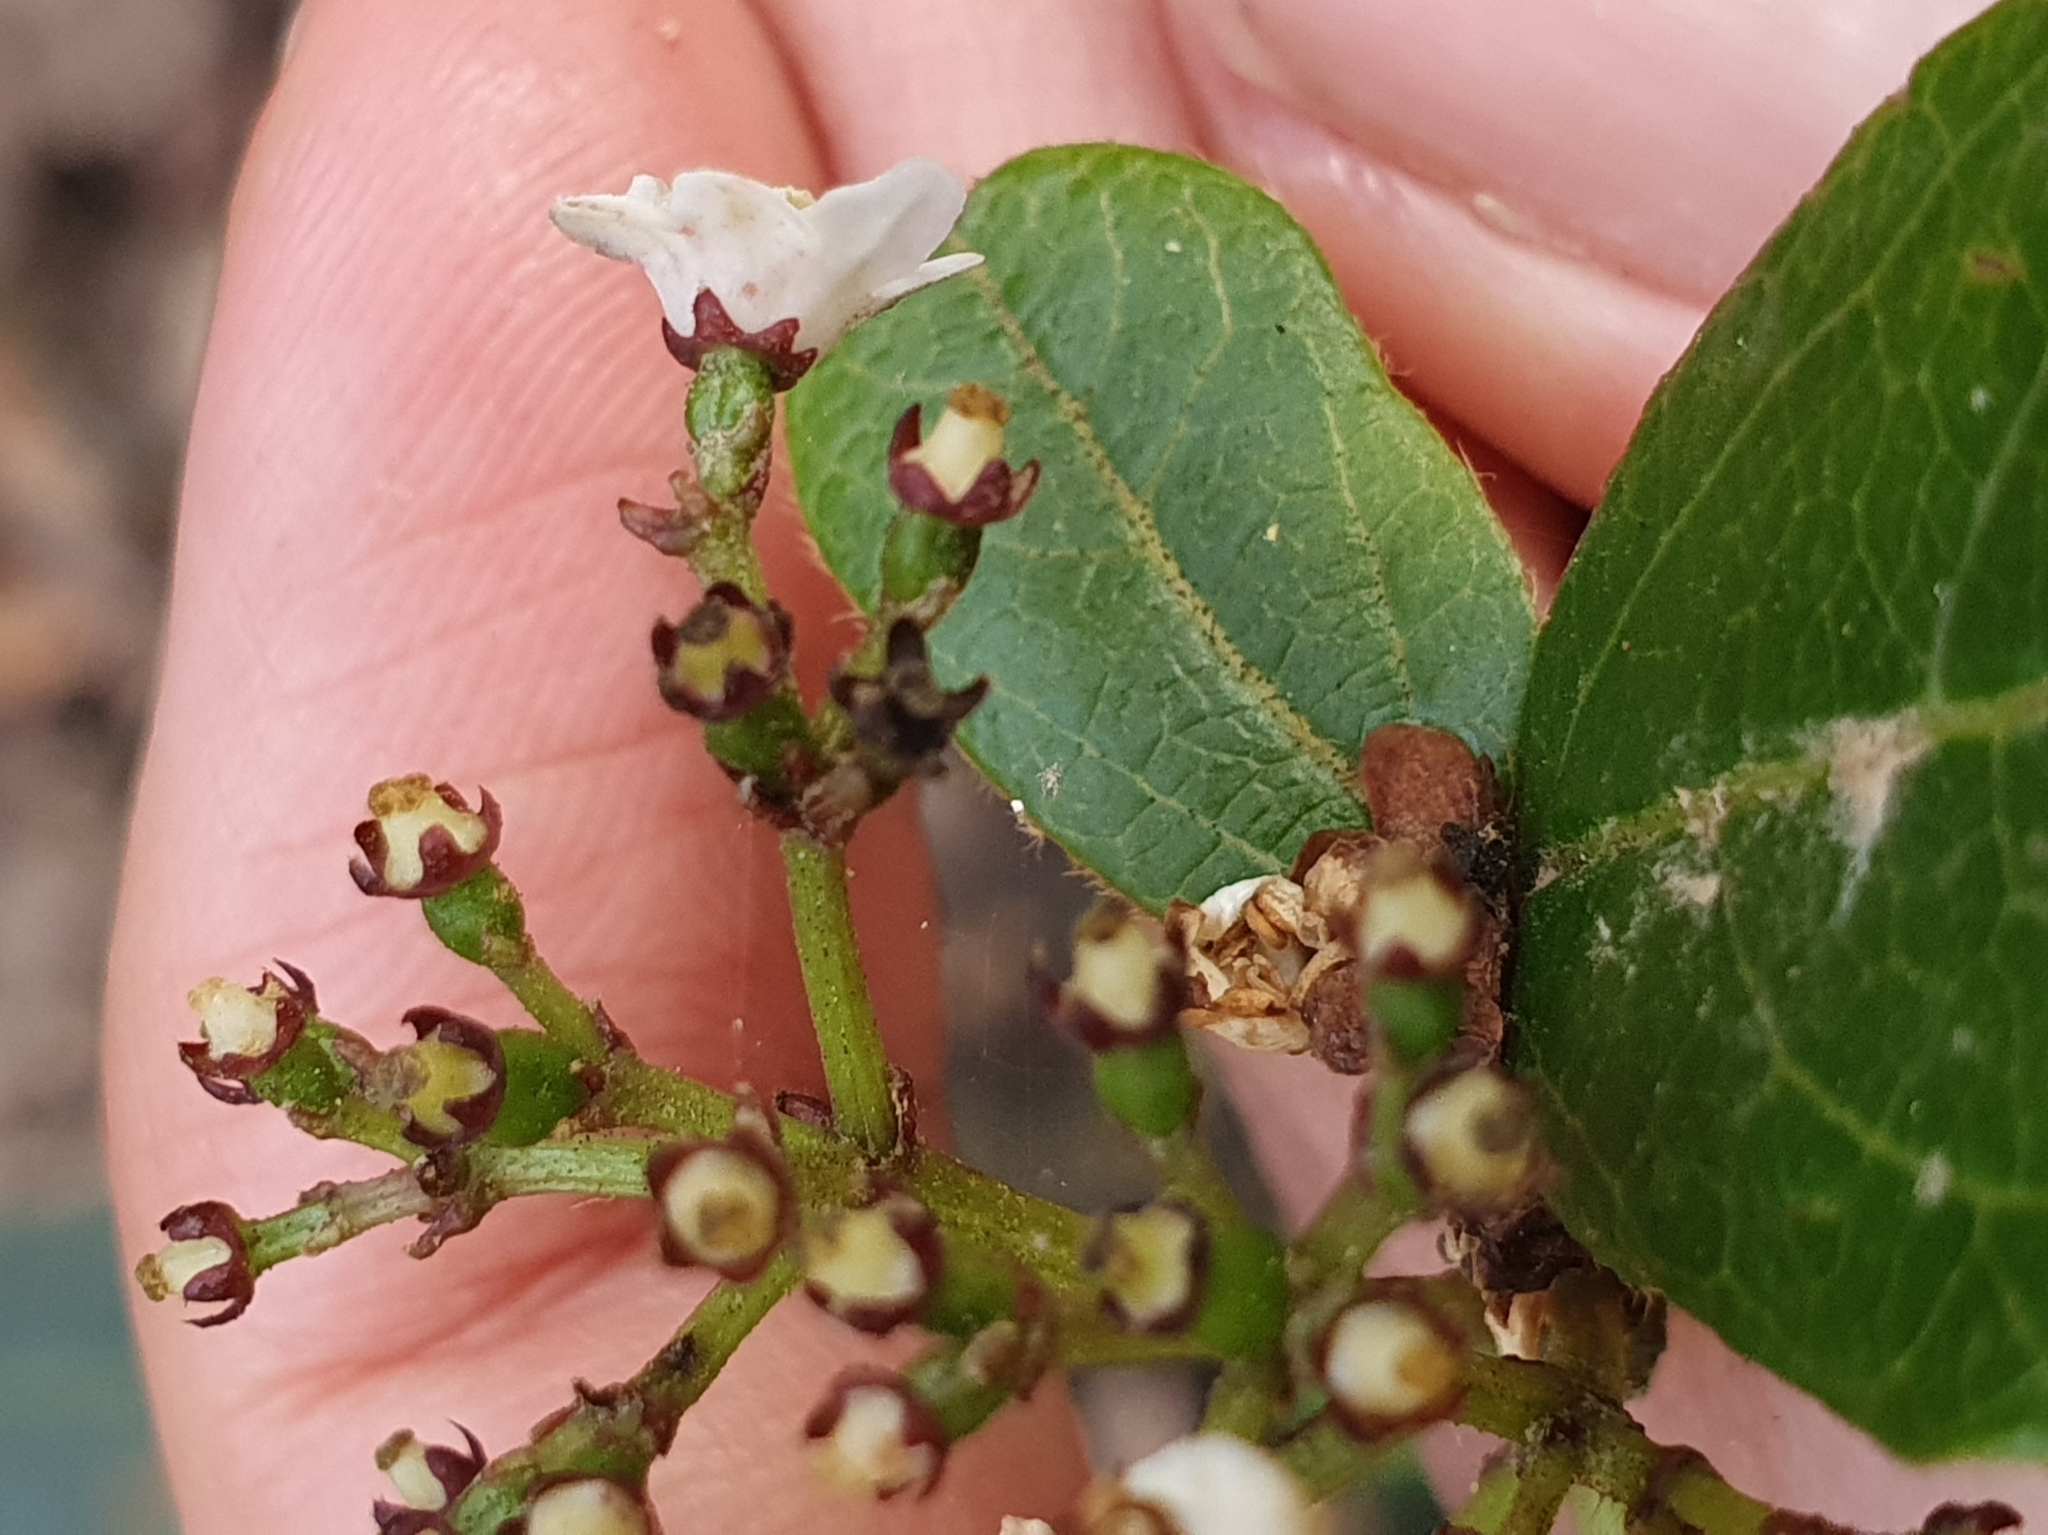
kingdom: Plantae
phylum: Tracheophyta
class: Magnoliopsida
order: Dipsacales
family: Viburnaceae
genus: Viburnum
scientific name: Viburnum tinus
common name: Laurustinus
